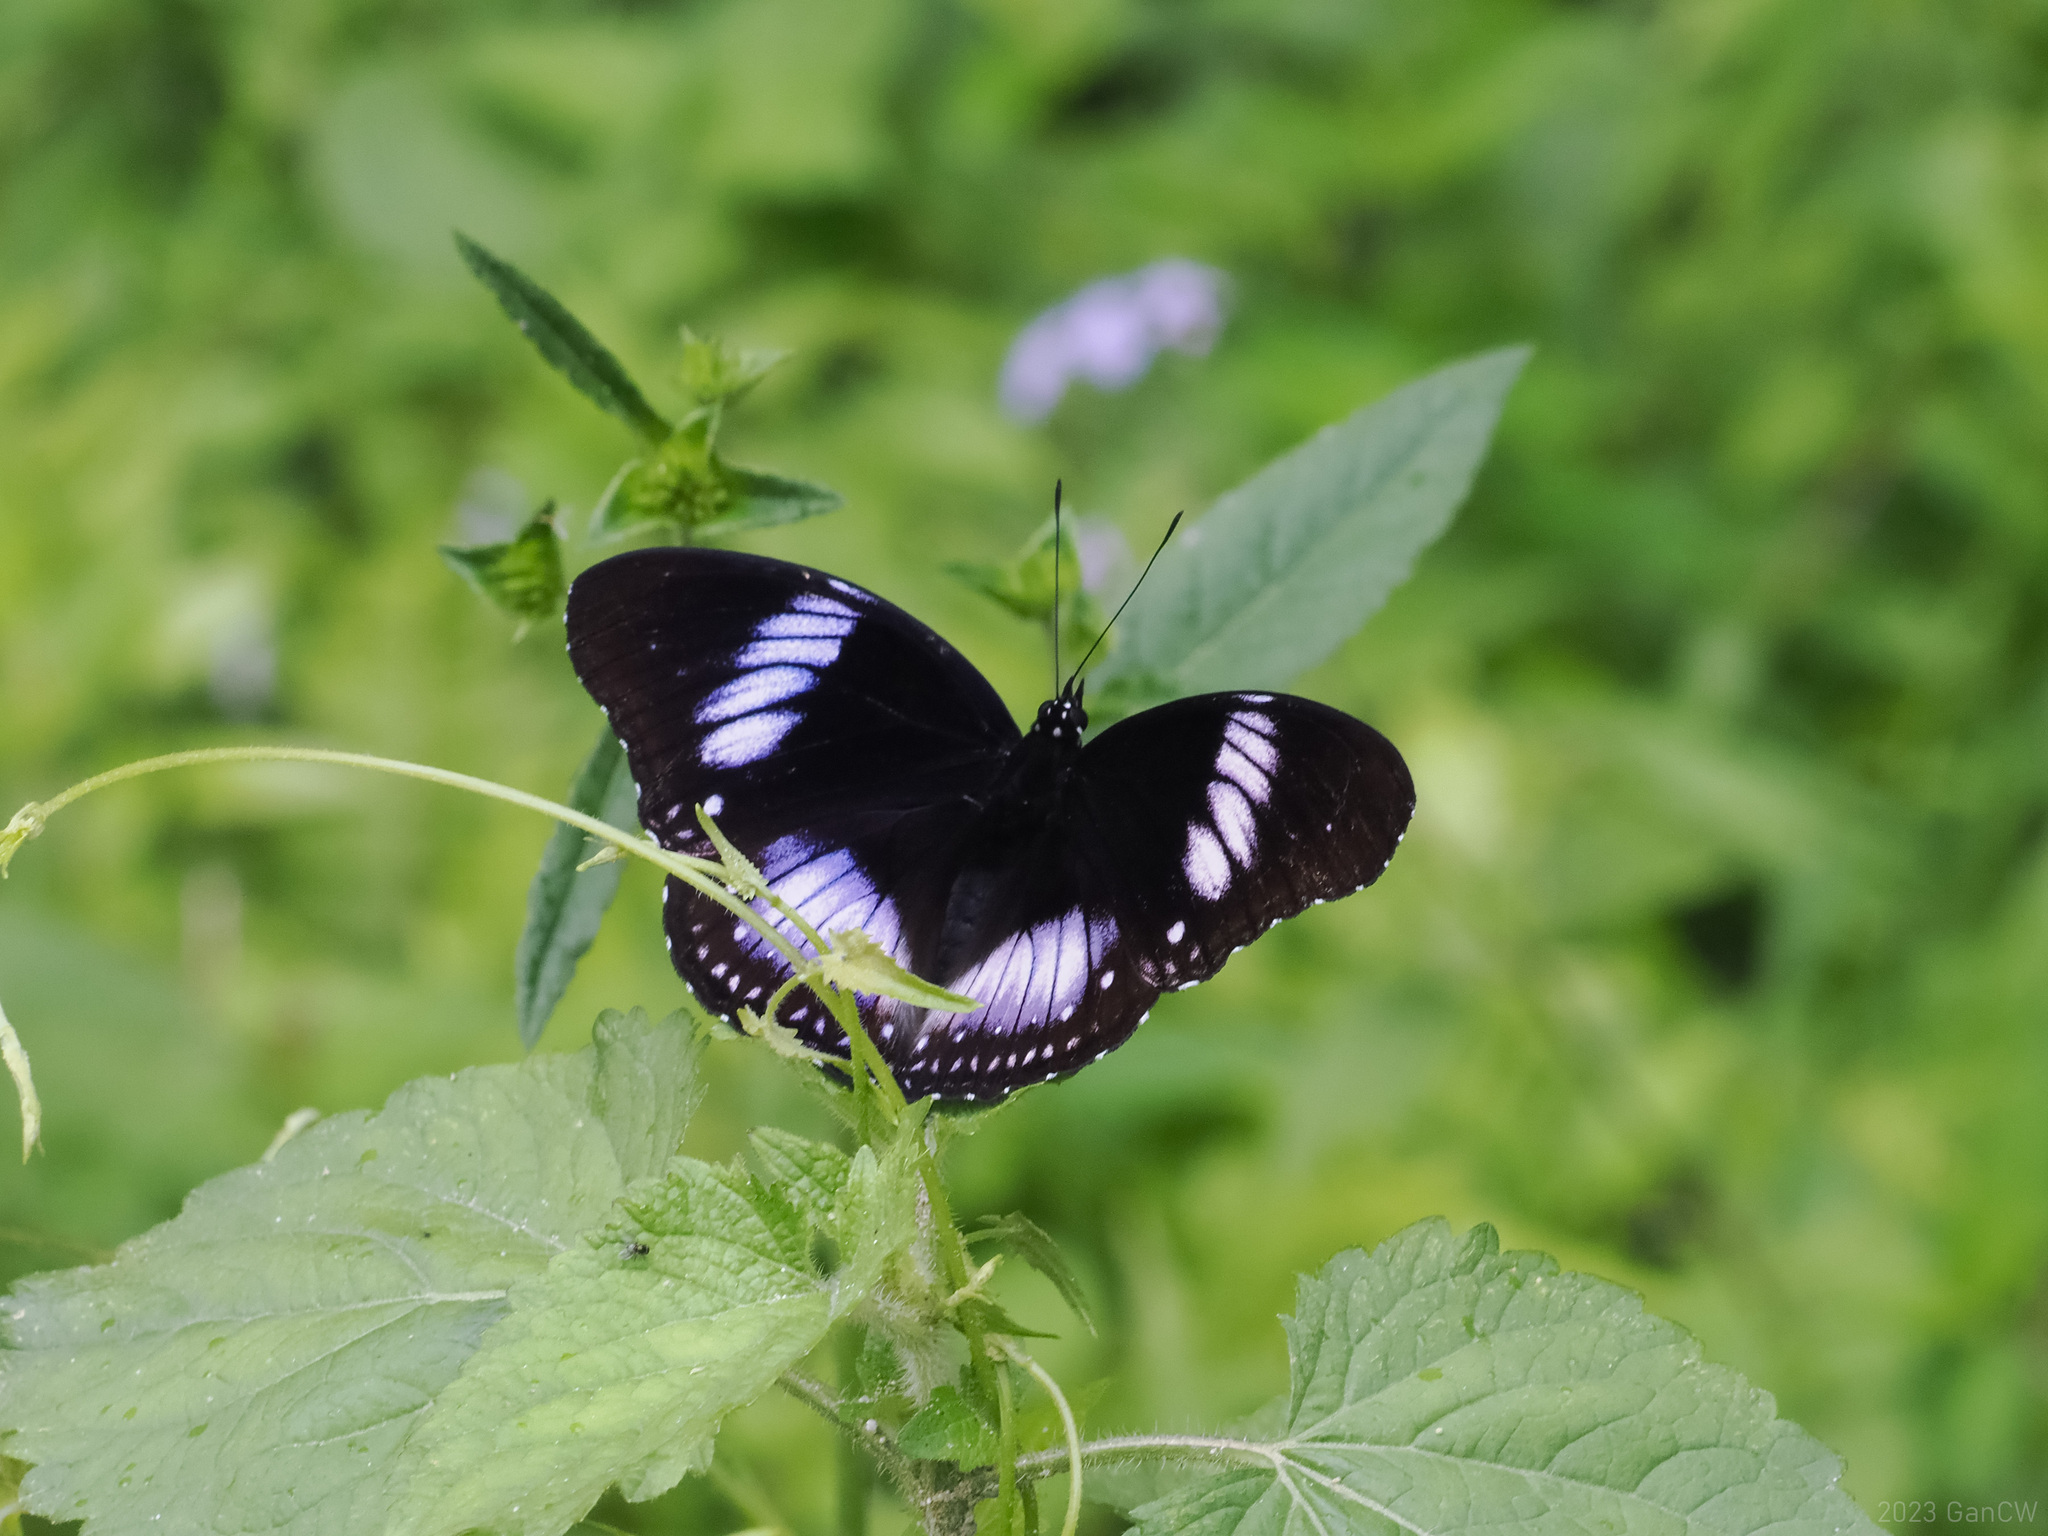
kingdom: Animalia
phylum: Arthropoda
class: Insecta
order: Lepidoptera
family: Nymphalidae
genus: Hypolimnas
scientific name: Hypolimnas diomea
